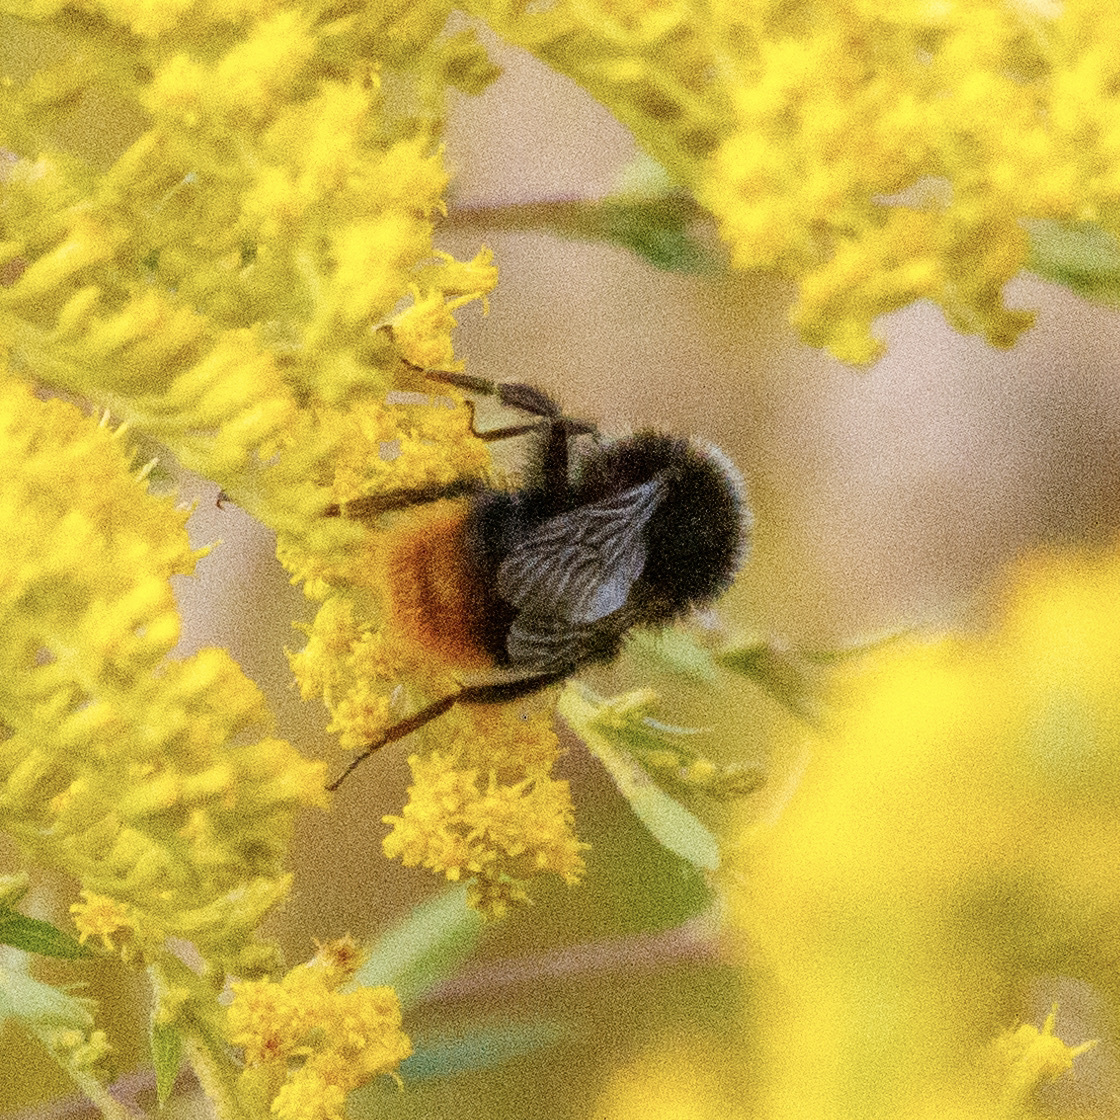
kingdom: Animalia
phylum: Arthropoda
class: Insecta
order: Hymenoptera
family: Apidae
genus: Bombus
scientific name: Bombus lapidarius
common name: Large red-tailed humble-bee
